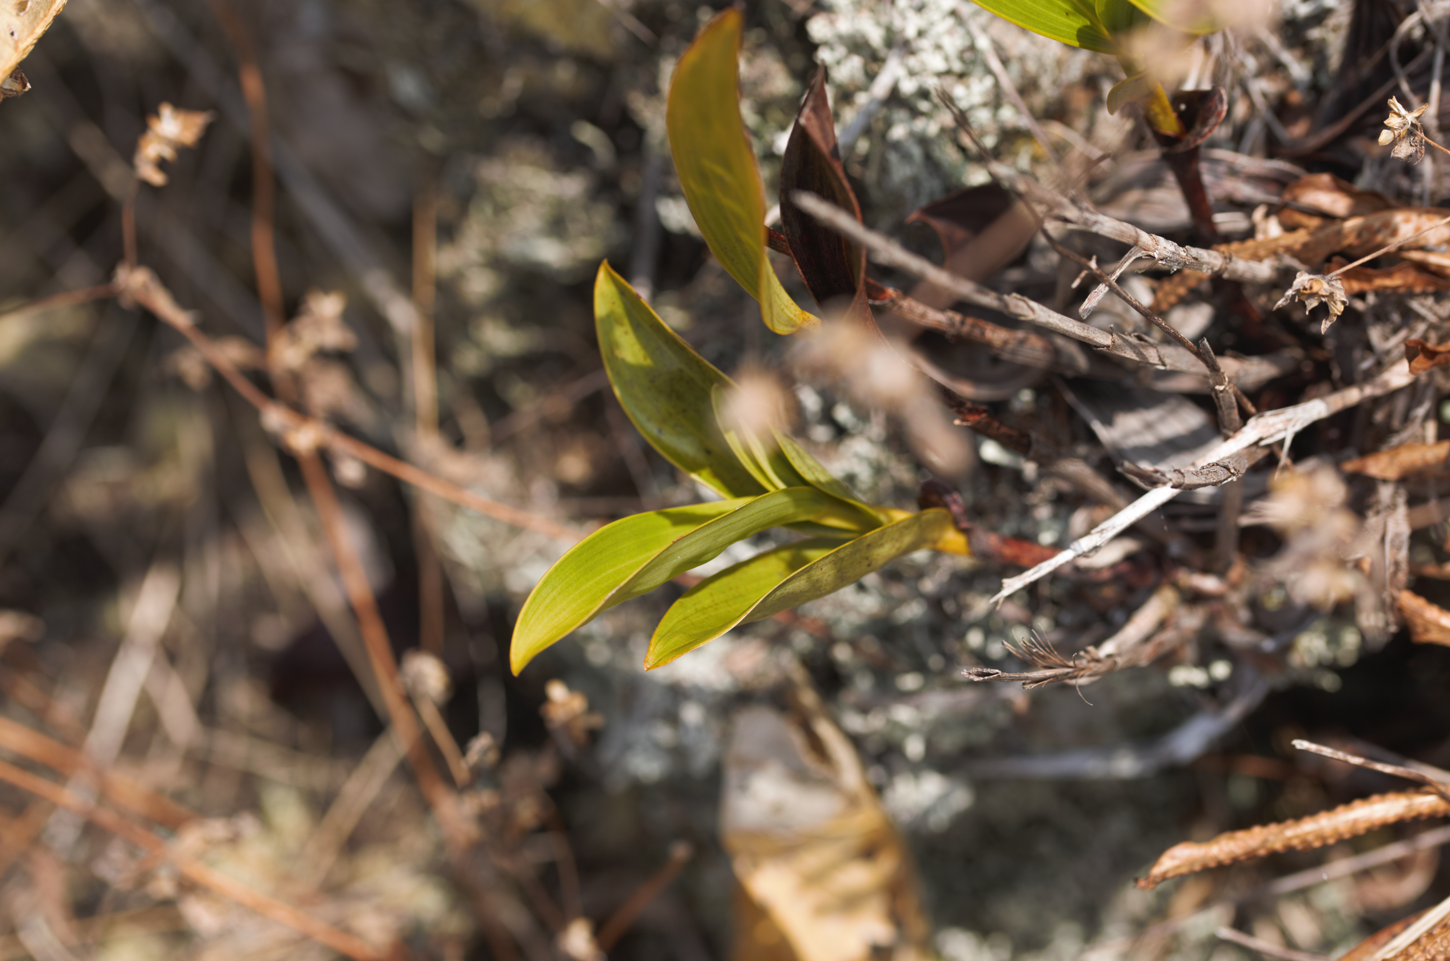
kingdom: Plantae
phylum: Tracheophyta
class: Liliopsida
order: Asparagales
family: Orchidaceae
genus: Sobralia
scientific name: Sobralia macrophylla
